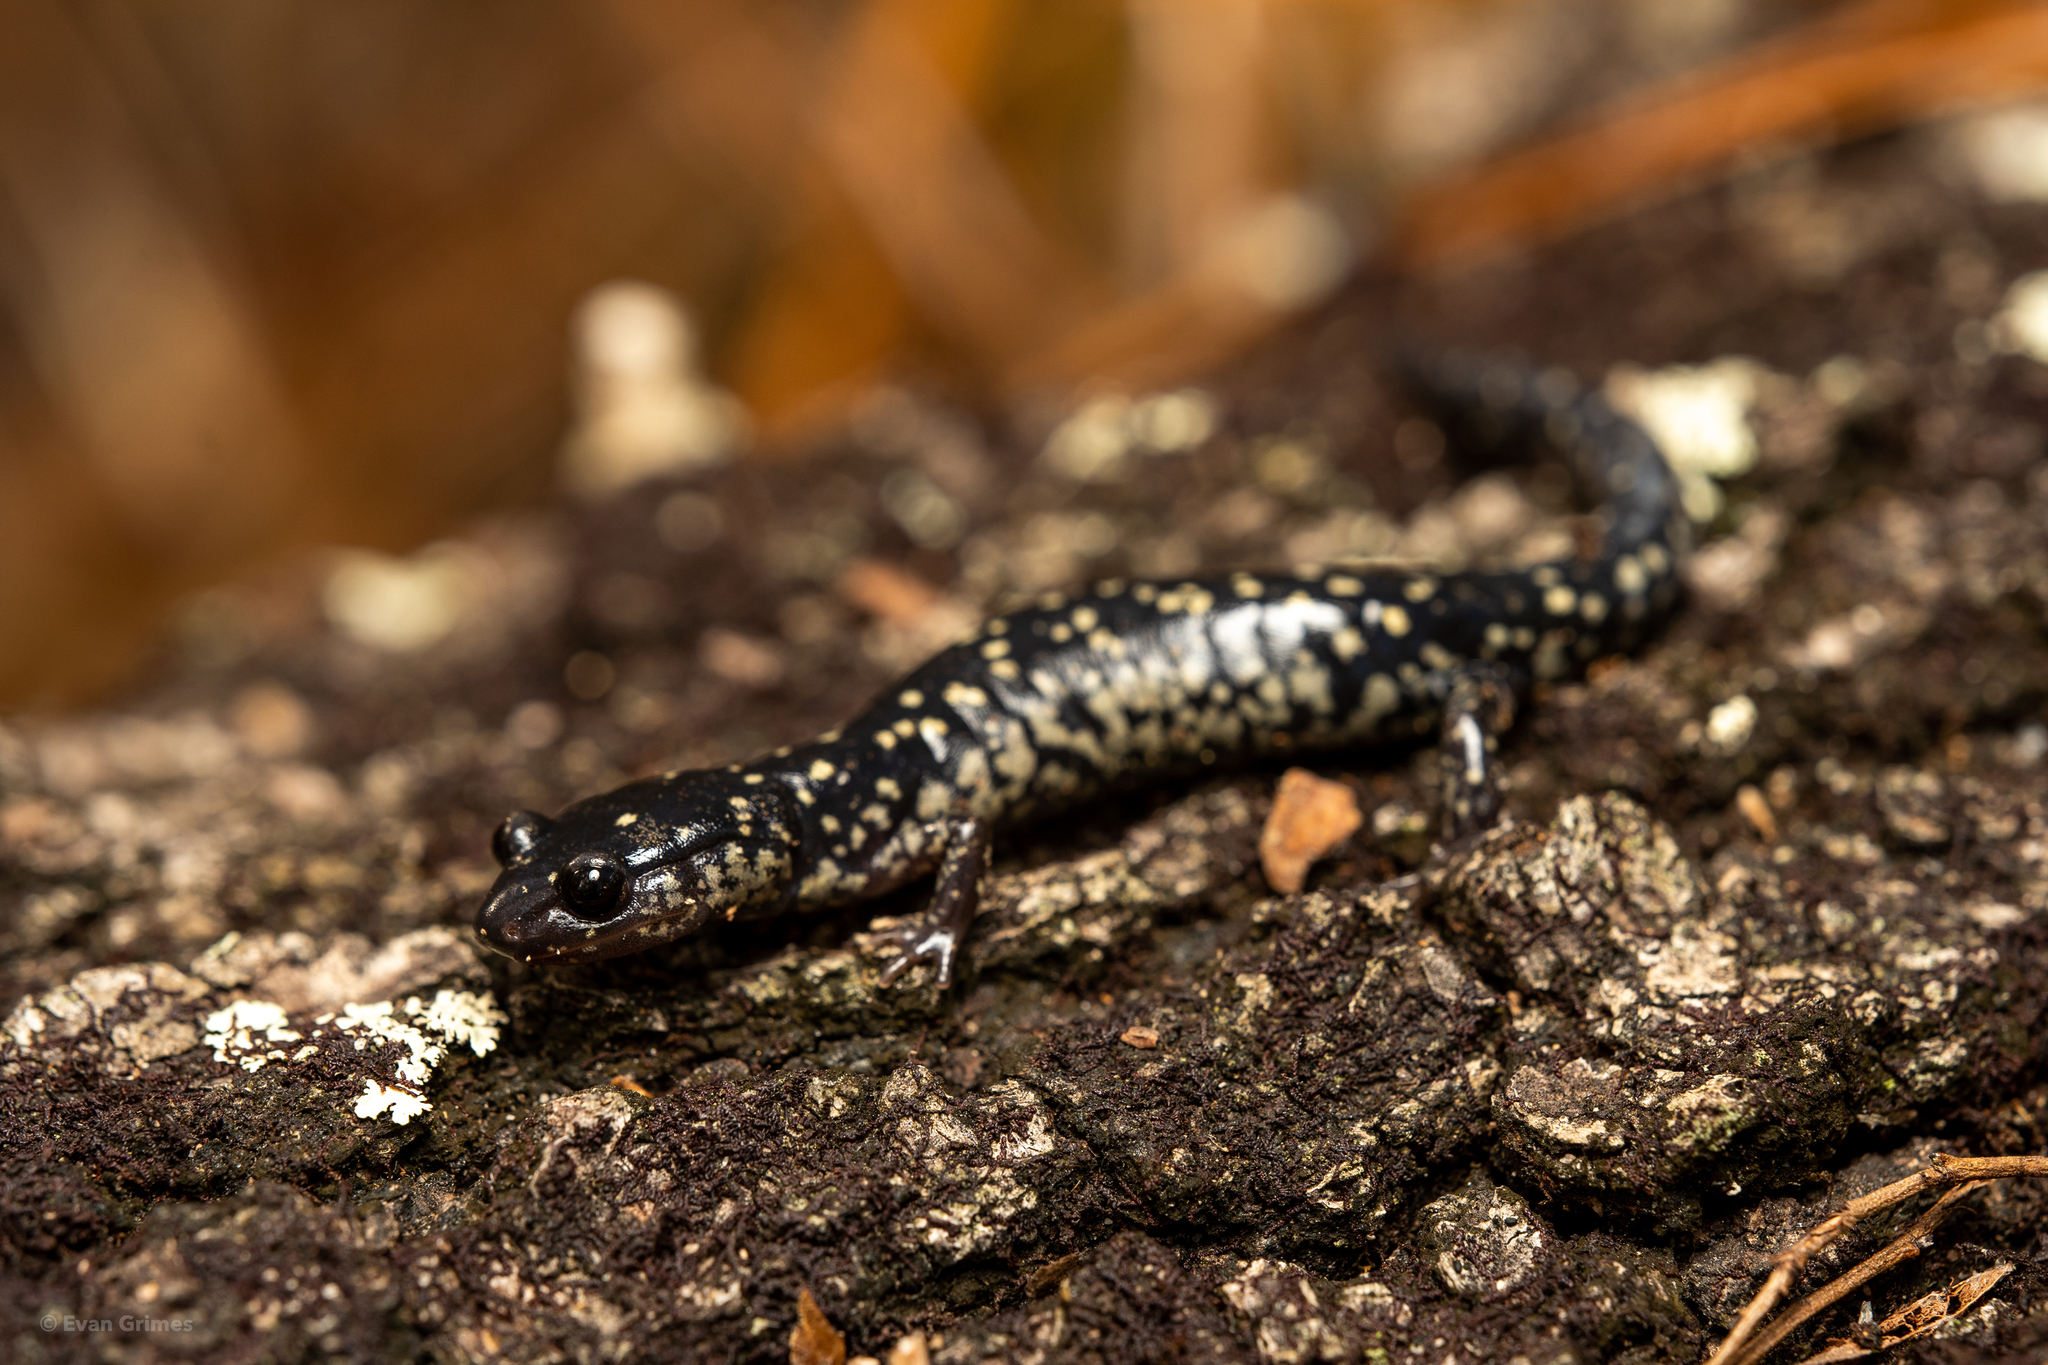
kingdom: Animalia
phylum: Chordata
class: Amphibia
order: Caudata
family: Plethodontidae
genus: Plethodon
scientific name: Plethodon mississippi
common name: Mississippi slimy salamander
